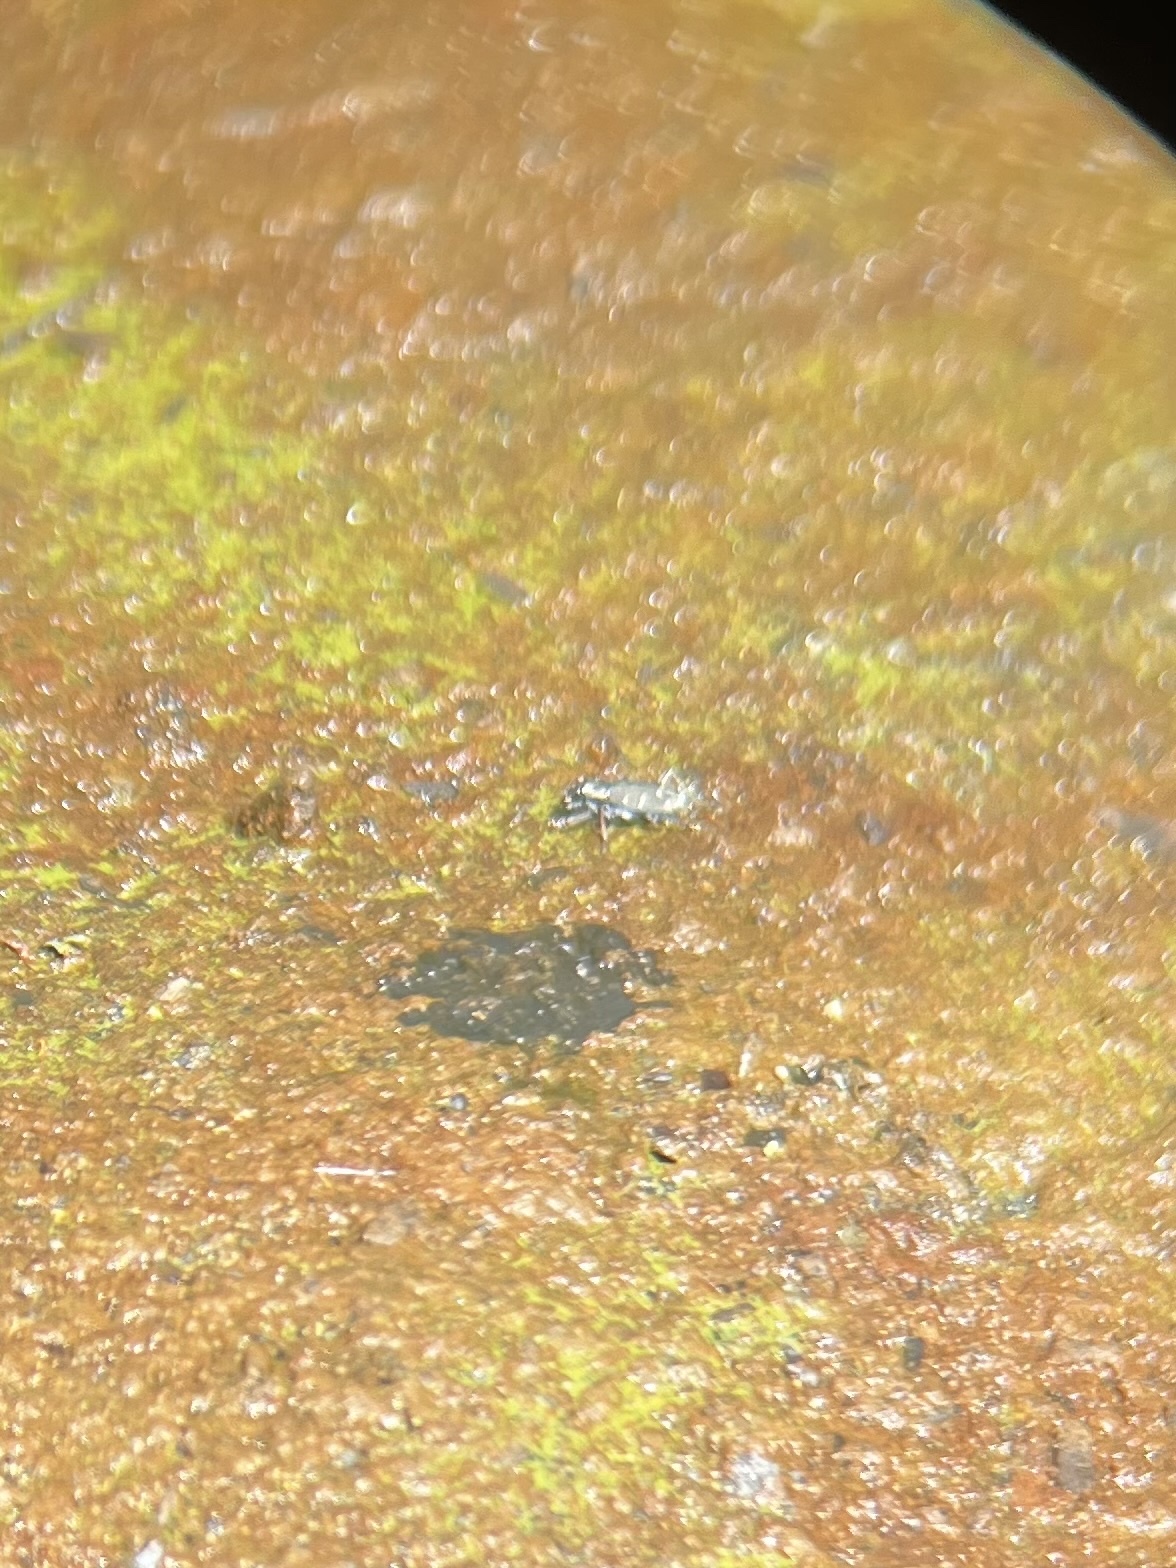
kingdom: Animalia
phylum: Arthropoda
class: Insecta
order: Coleoptera
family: Carabidae
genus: Cicindela
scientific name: Cicindela oregona
